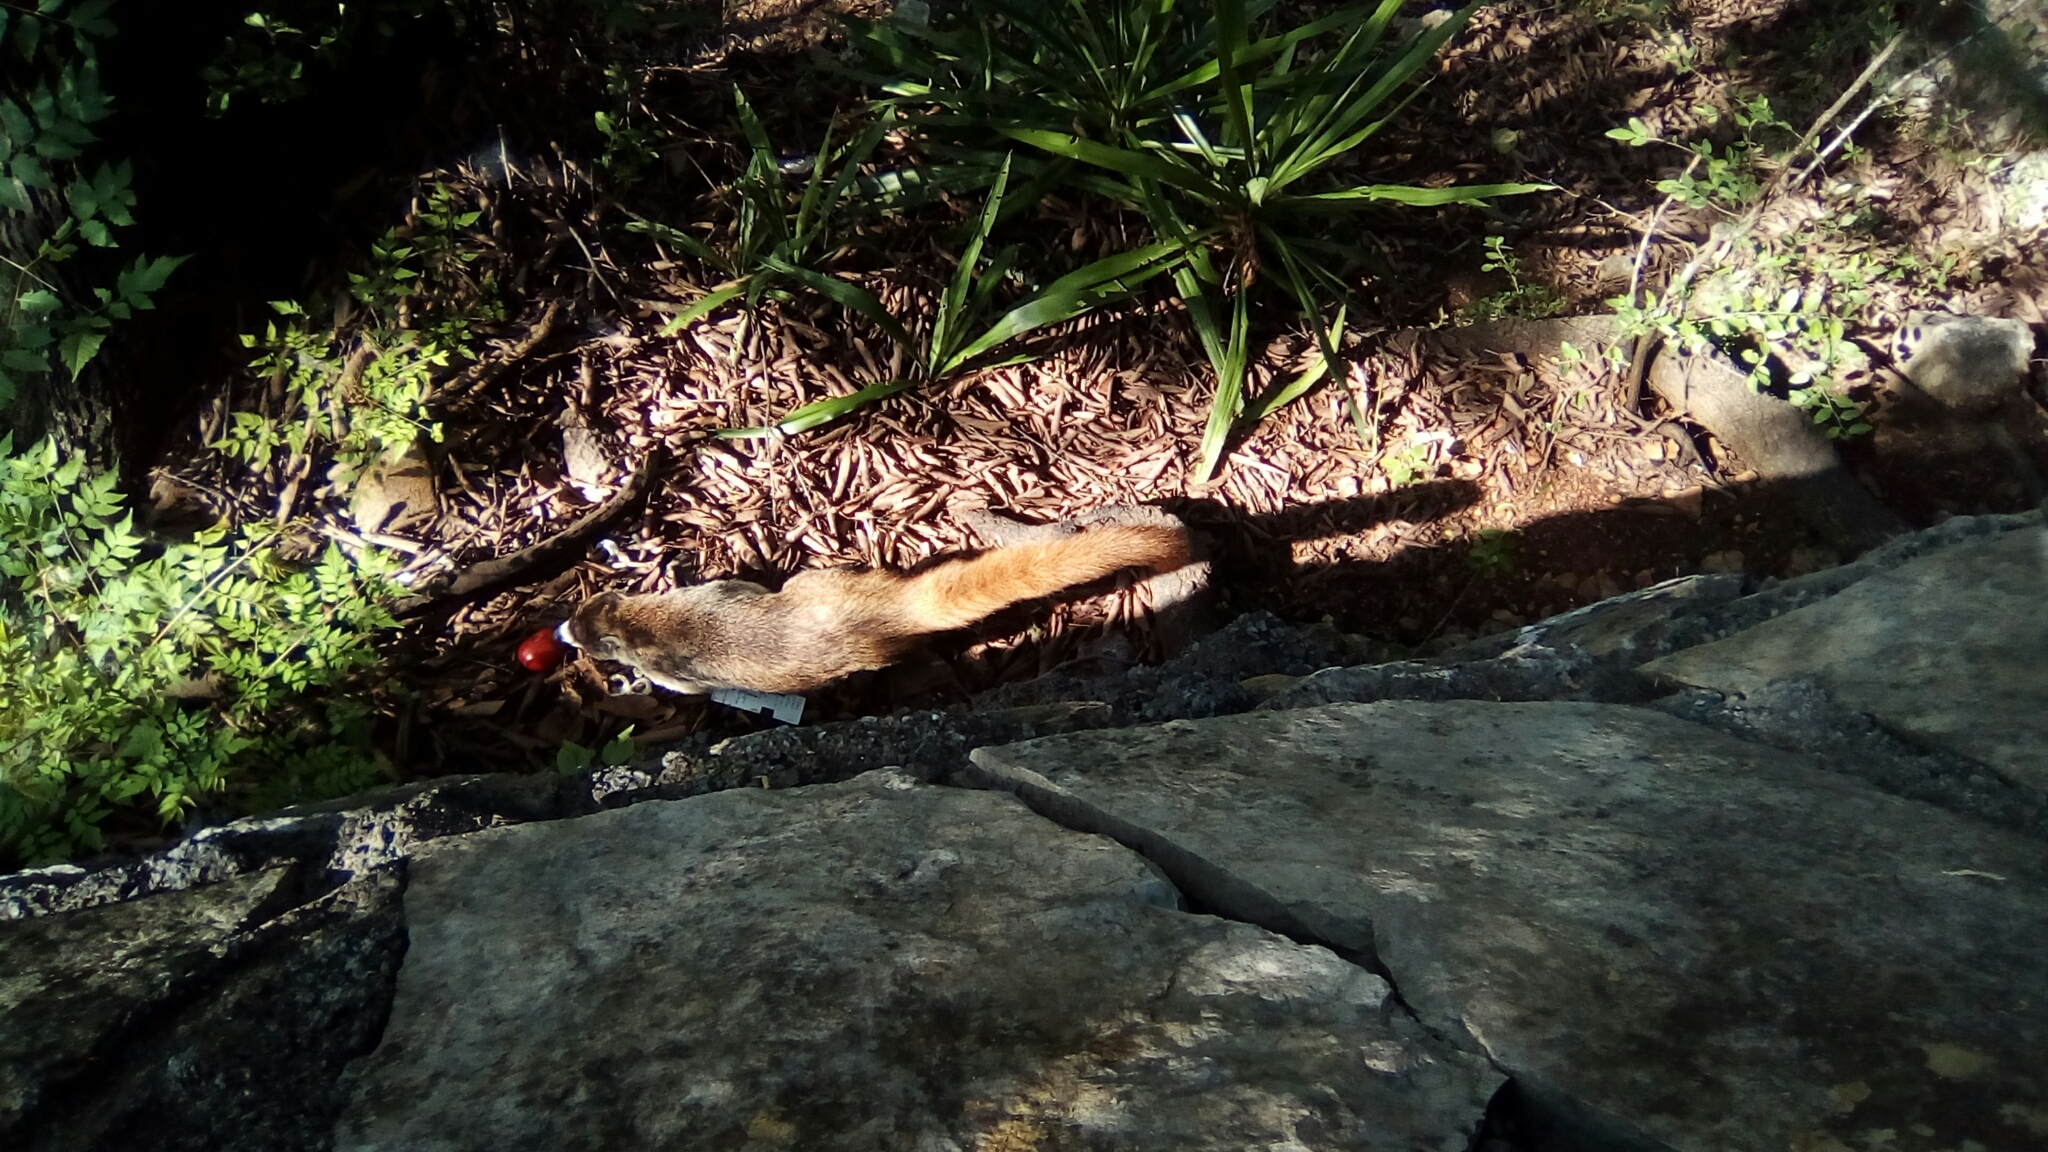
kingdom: Animalia
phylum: Chordata
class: Mammalia
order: Carnivora
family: Procyonidae
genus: Nasua
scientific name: Nasua narica
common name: White-nosed coati
